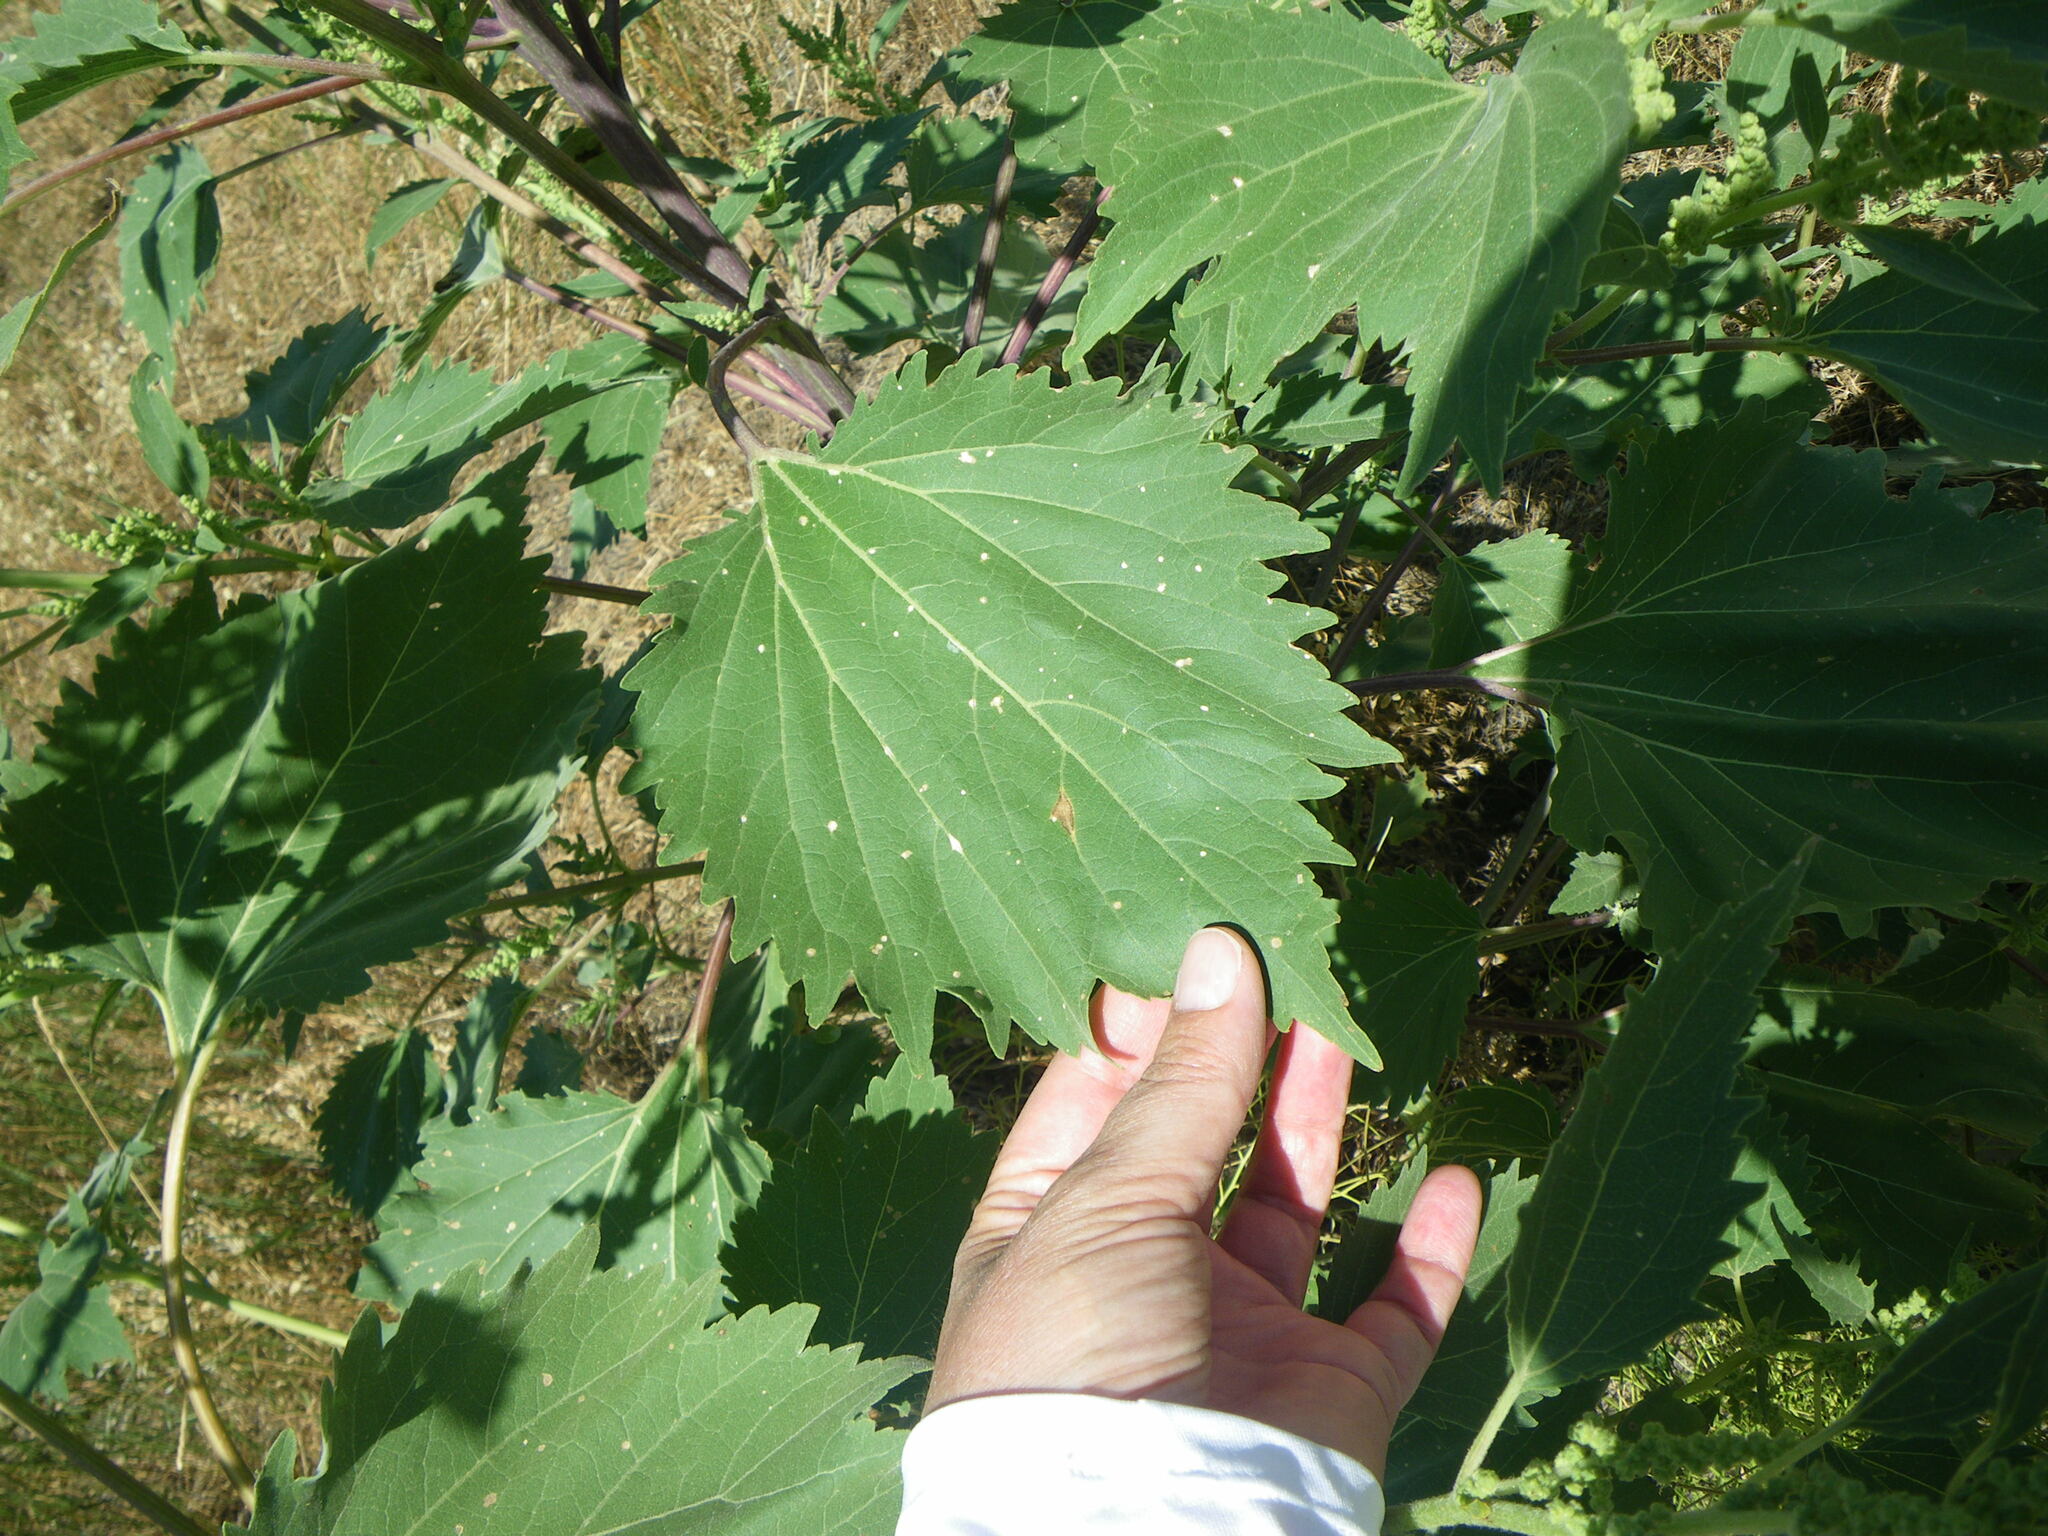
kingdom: Plantae
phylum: Tracheophyta
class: Magnoliopsida
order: Asterales
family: Asteraceae
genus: Cyclachaena
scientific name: Cyclachaena xanthiifolia
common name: Giant sumpweed
